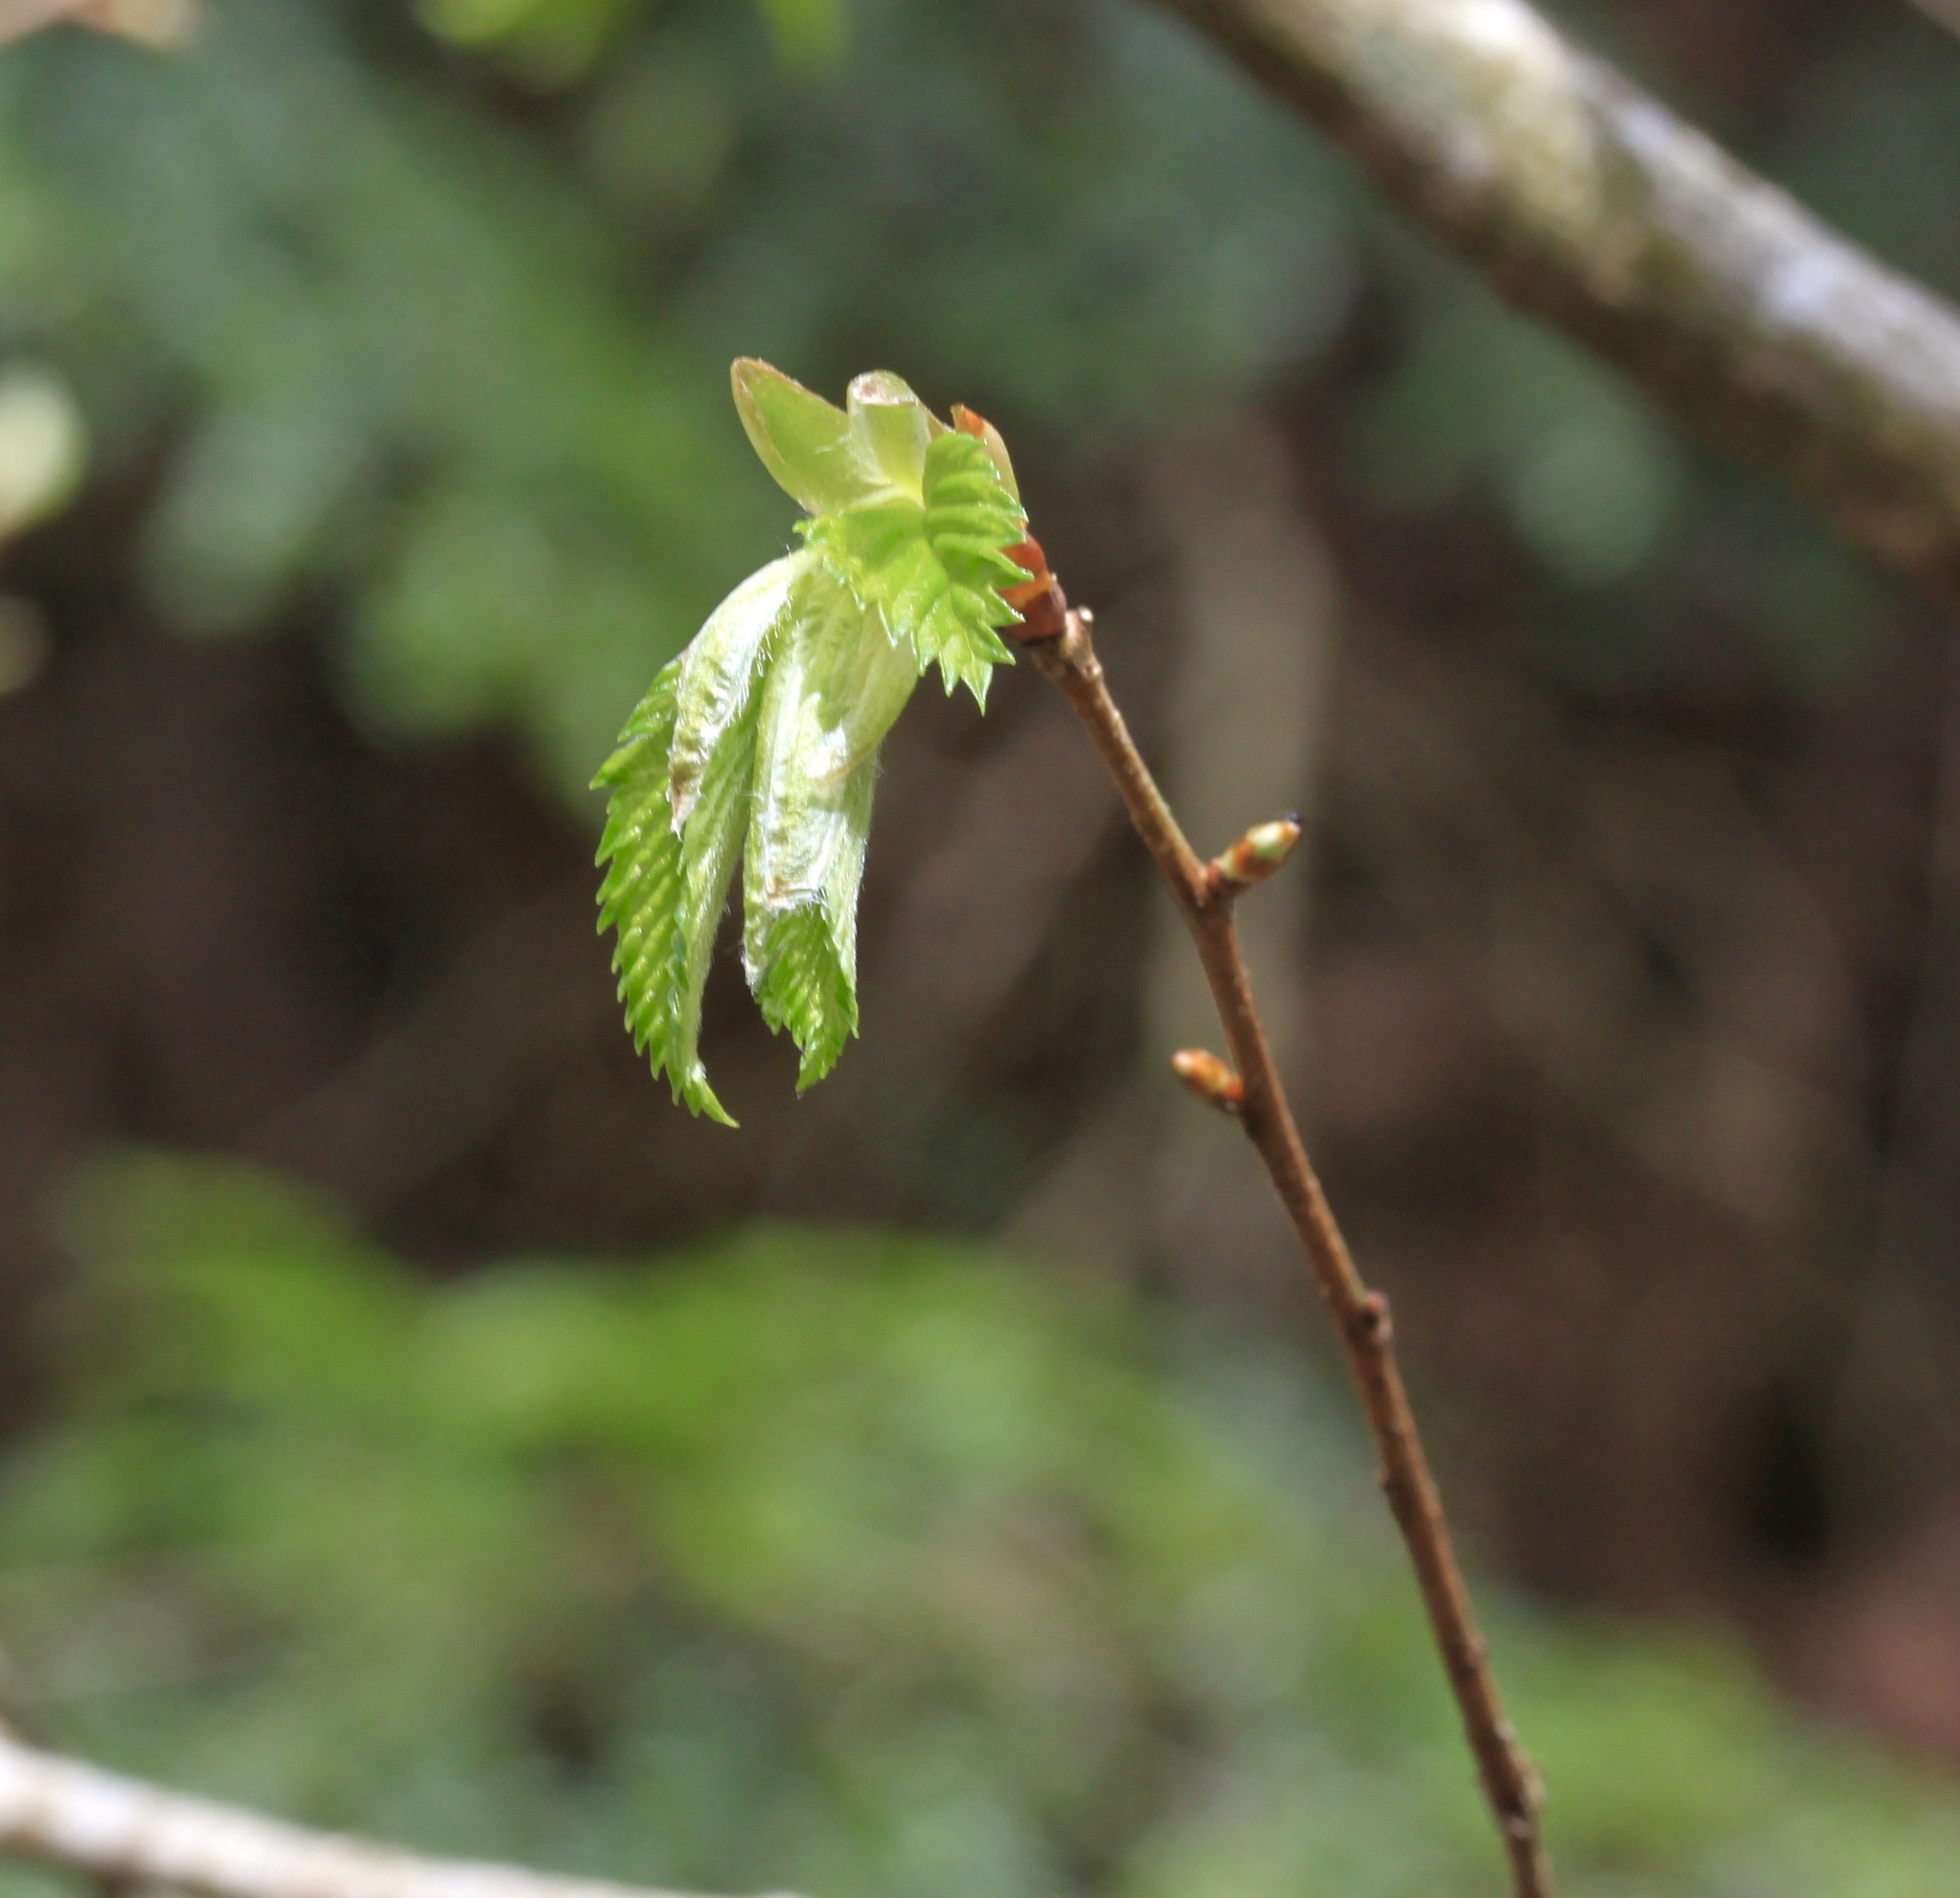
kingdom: Plantae
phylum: Tracheophyta
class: Magnoliopsida
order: Rosales
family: Ulmaceae
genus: Ulmus
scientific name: Ulmus americana
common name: American elm
